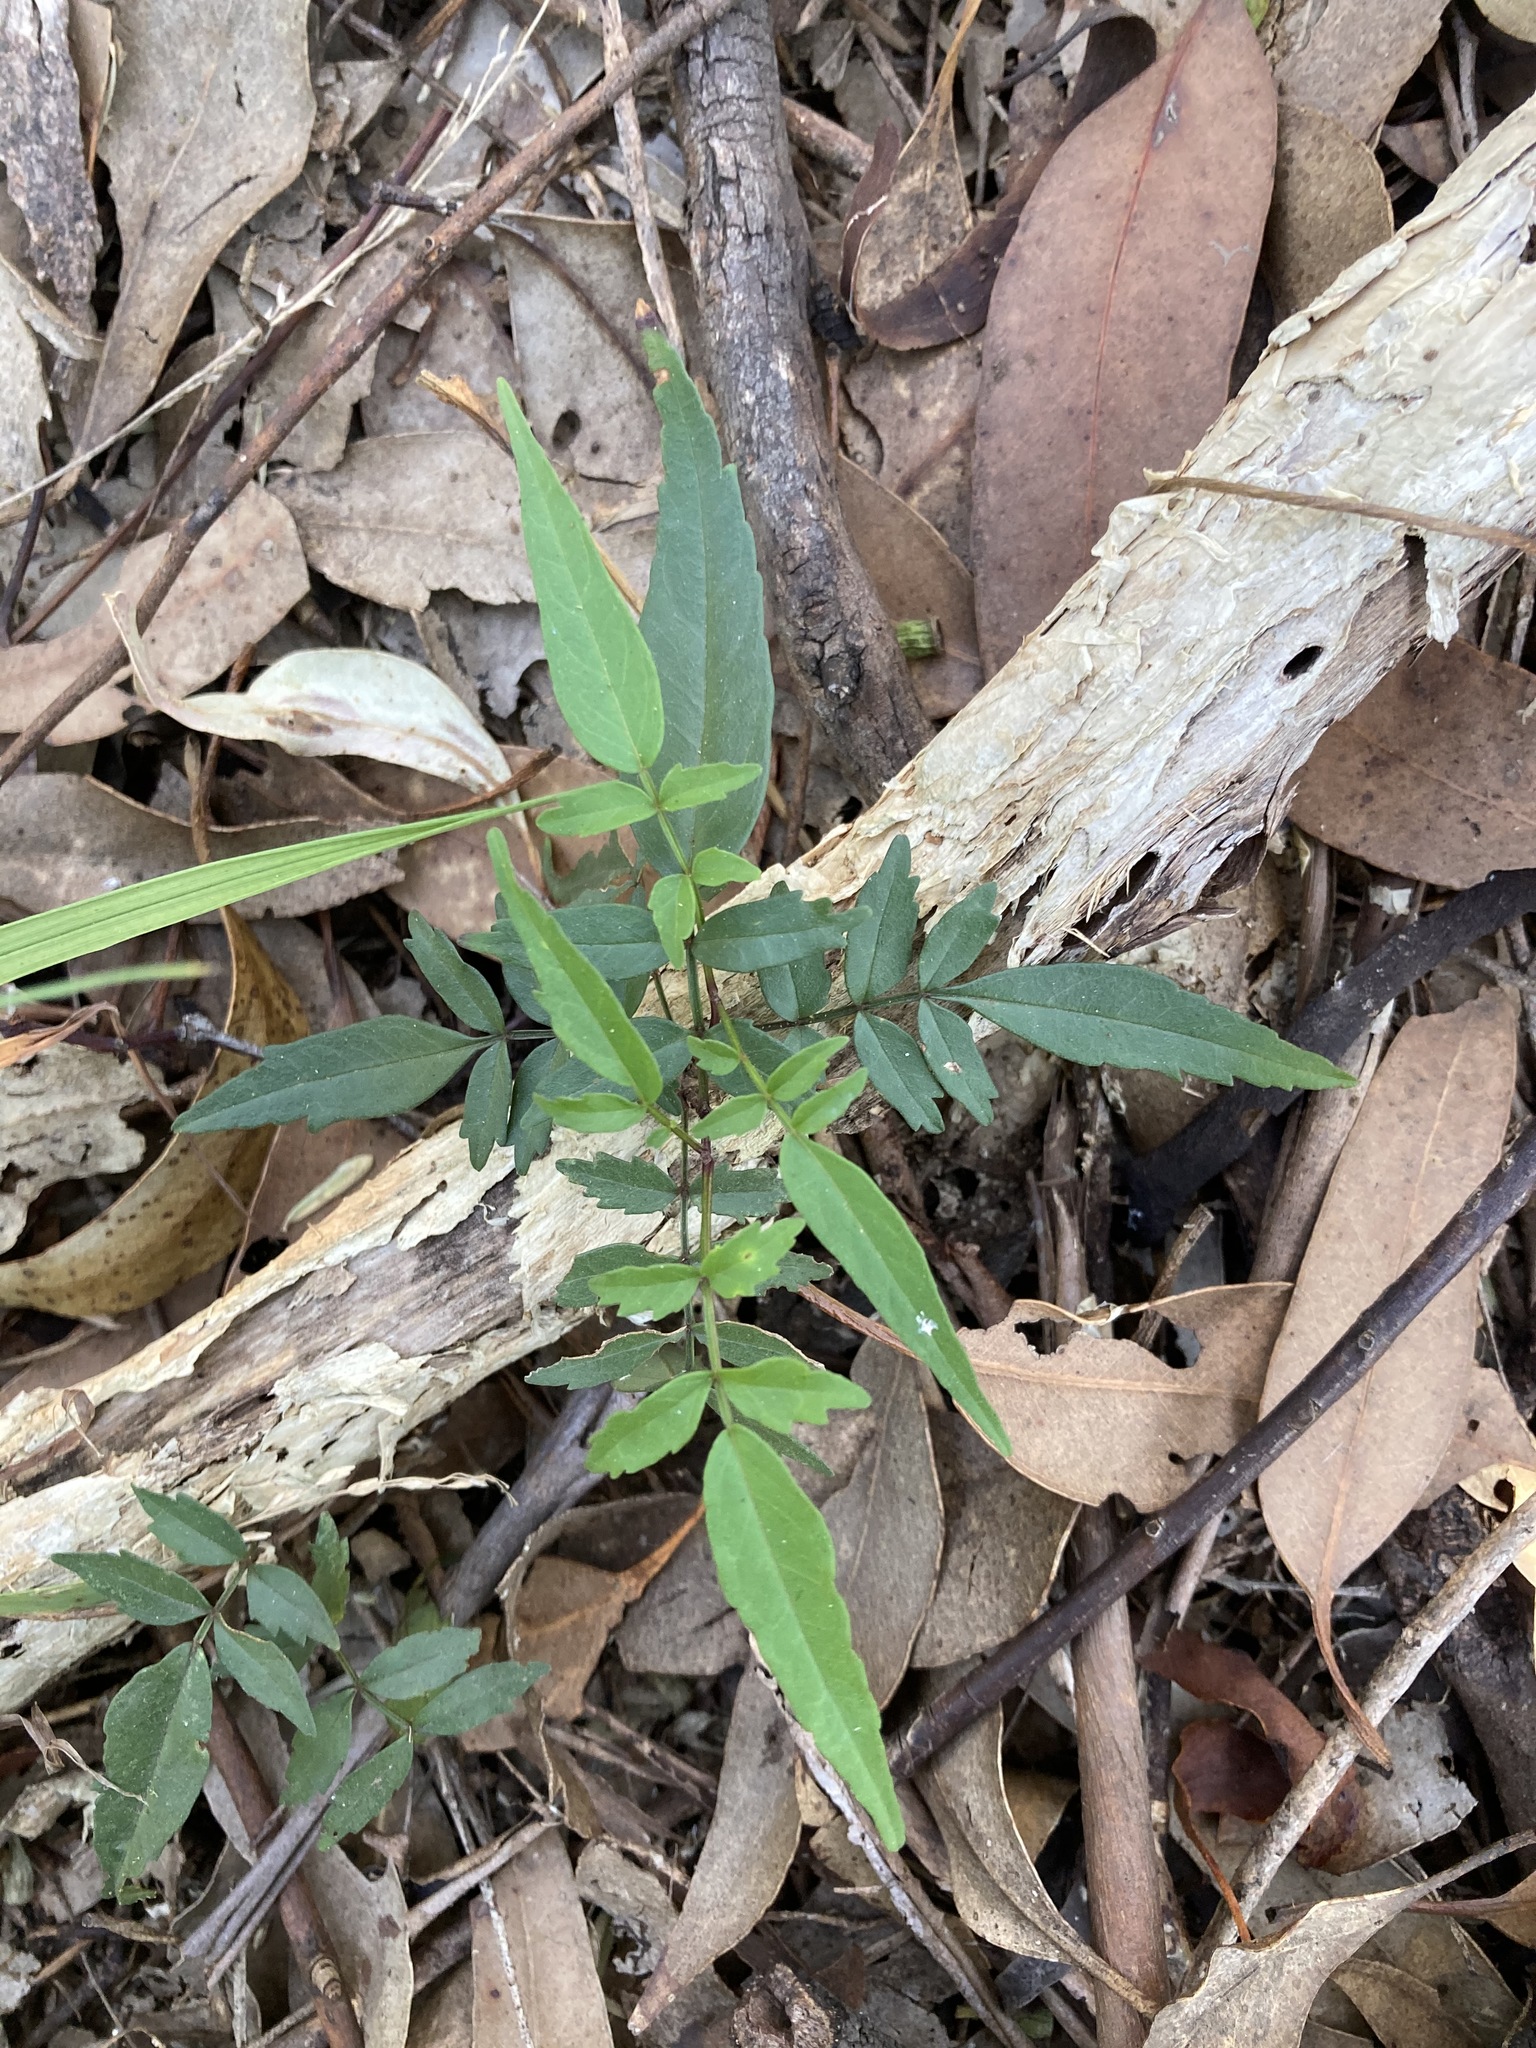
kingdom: Plantae
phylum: Tracheophyta
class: Magnoliopsida
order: Lamiales
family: Bignoniaceae
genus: Pandorea
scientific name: Pandorea pandorana
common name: Wonga-wonga-vine
